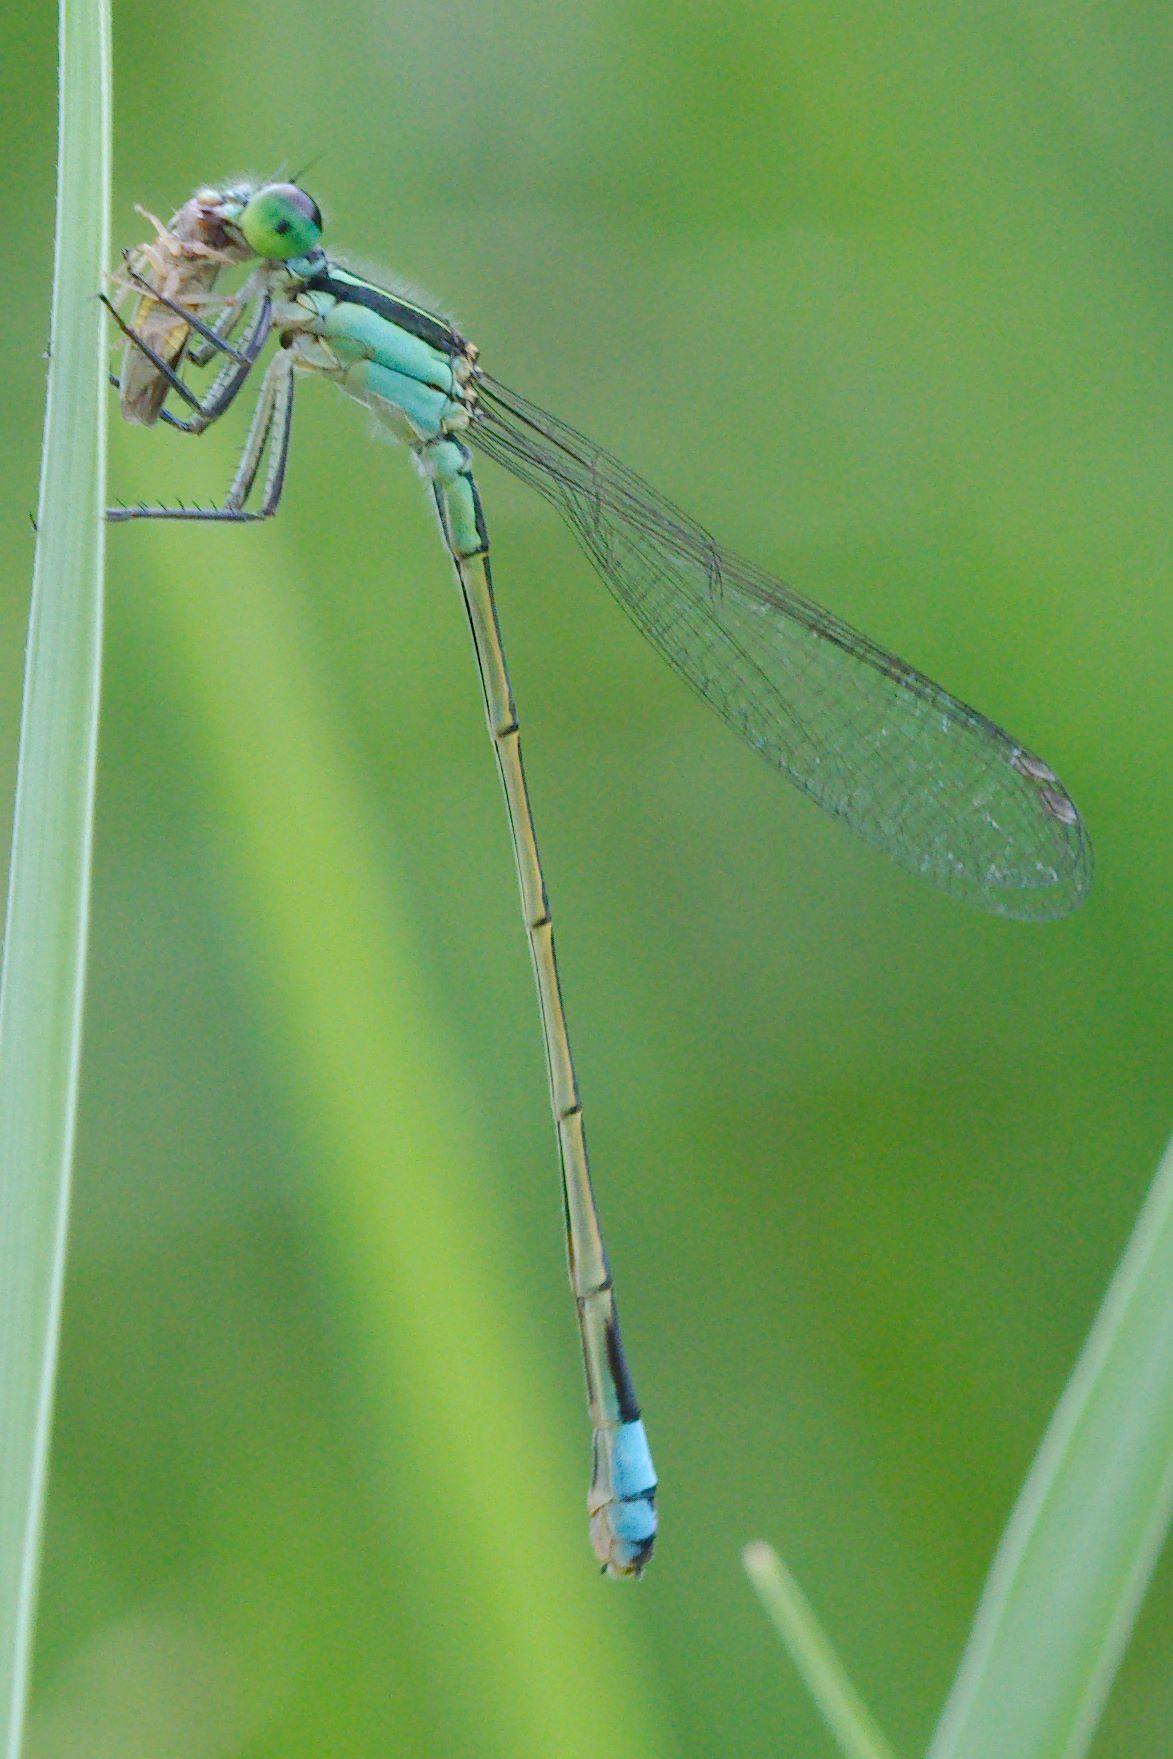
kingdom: Animalia
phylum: Arthropoda
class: Insecta
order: Odonata
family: Coenagrionidae
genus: Ischnura
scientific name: Ischnura ramburii
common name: Rambur's forktail
